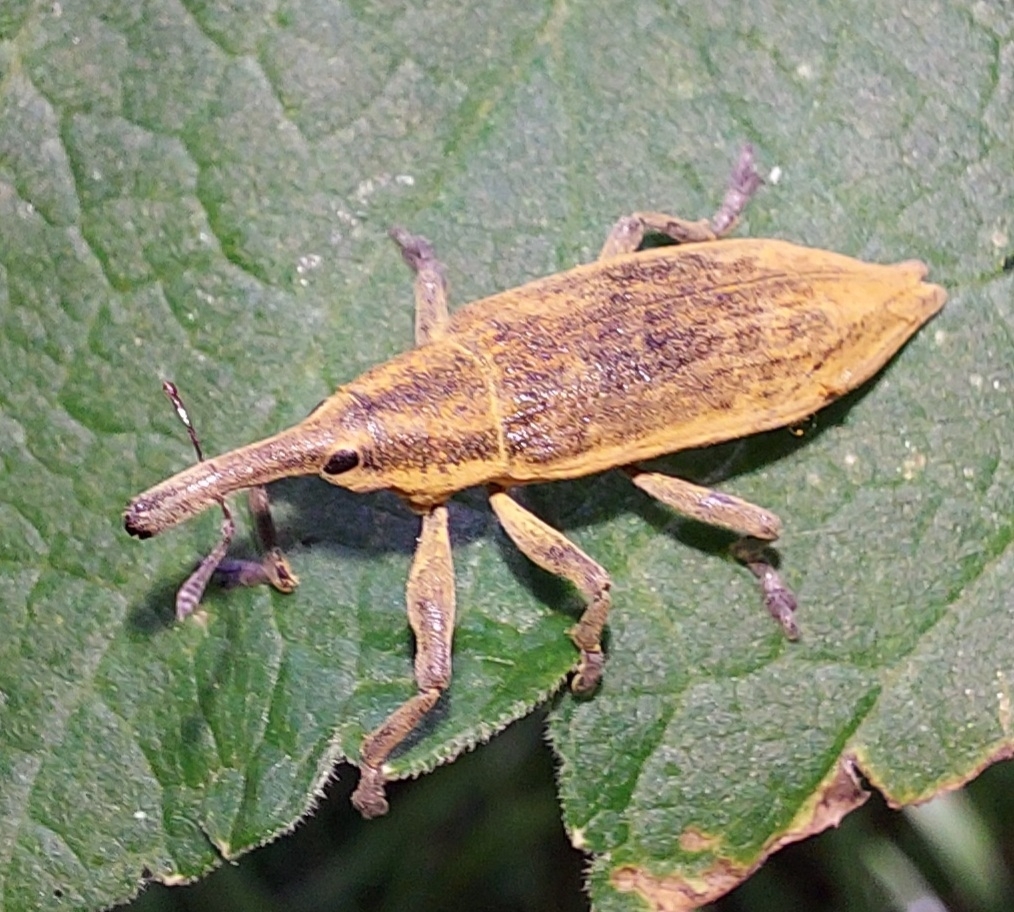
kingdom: Animalia
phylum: Arthropoda
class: Insecta
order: Coleoptera
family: Curculionidae
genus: Lixus
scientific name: Lixus iridis
